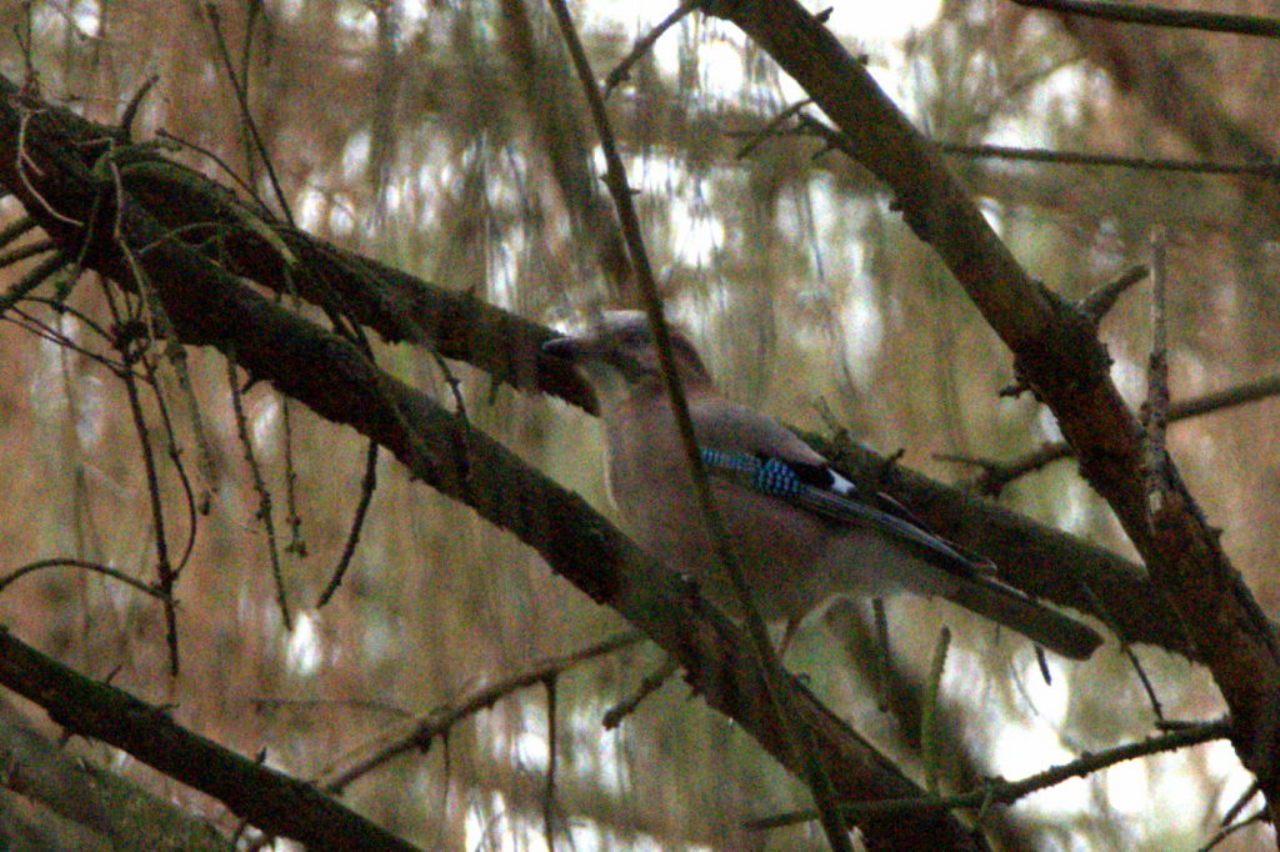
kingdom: Animalia
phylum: Chordata
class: Aves
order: Passeriformes
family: Corvidae
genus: Garrulus
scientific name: Garrulus glandarius
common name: Eurasian jay
